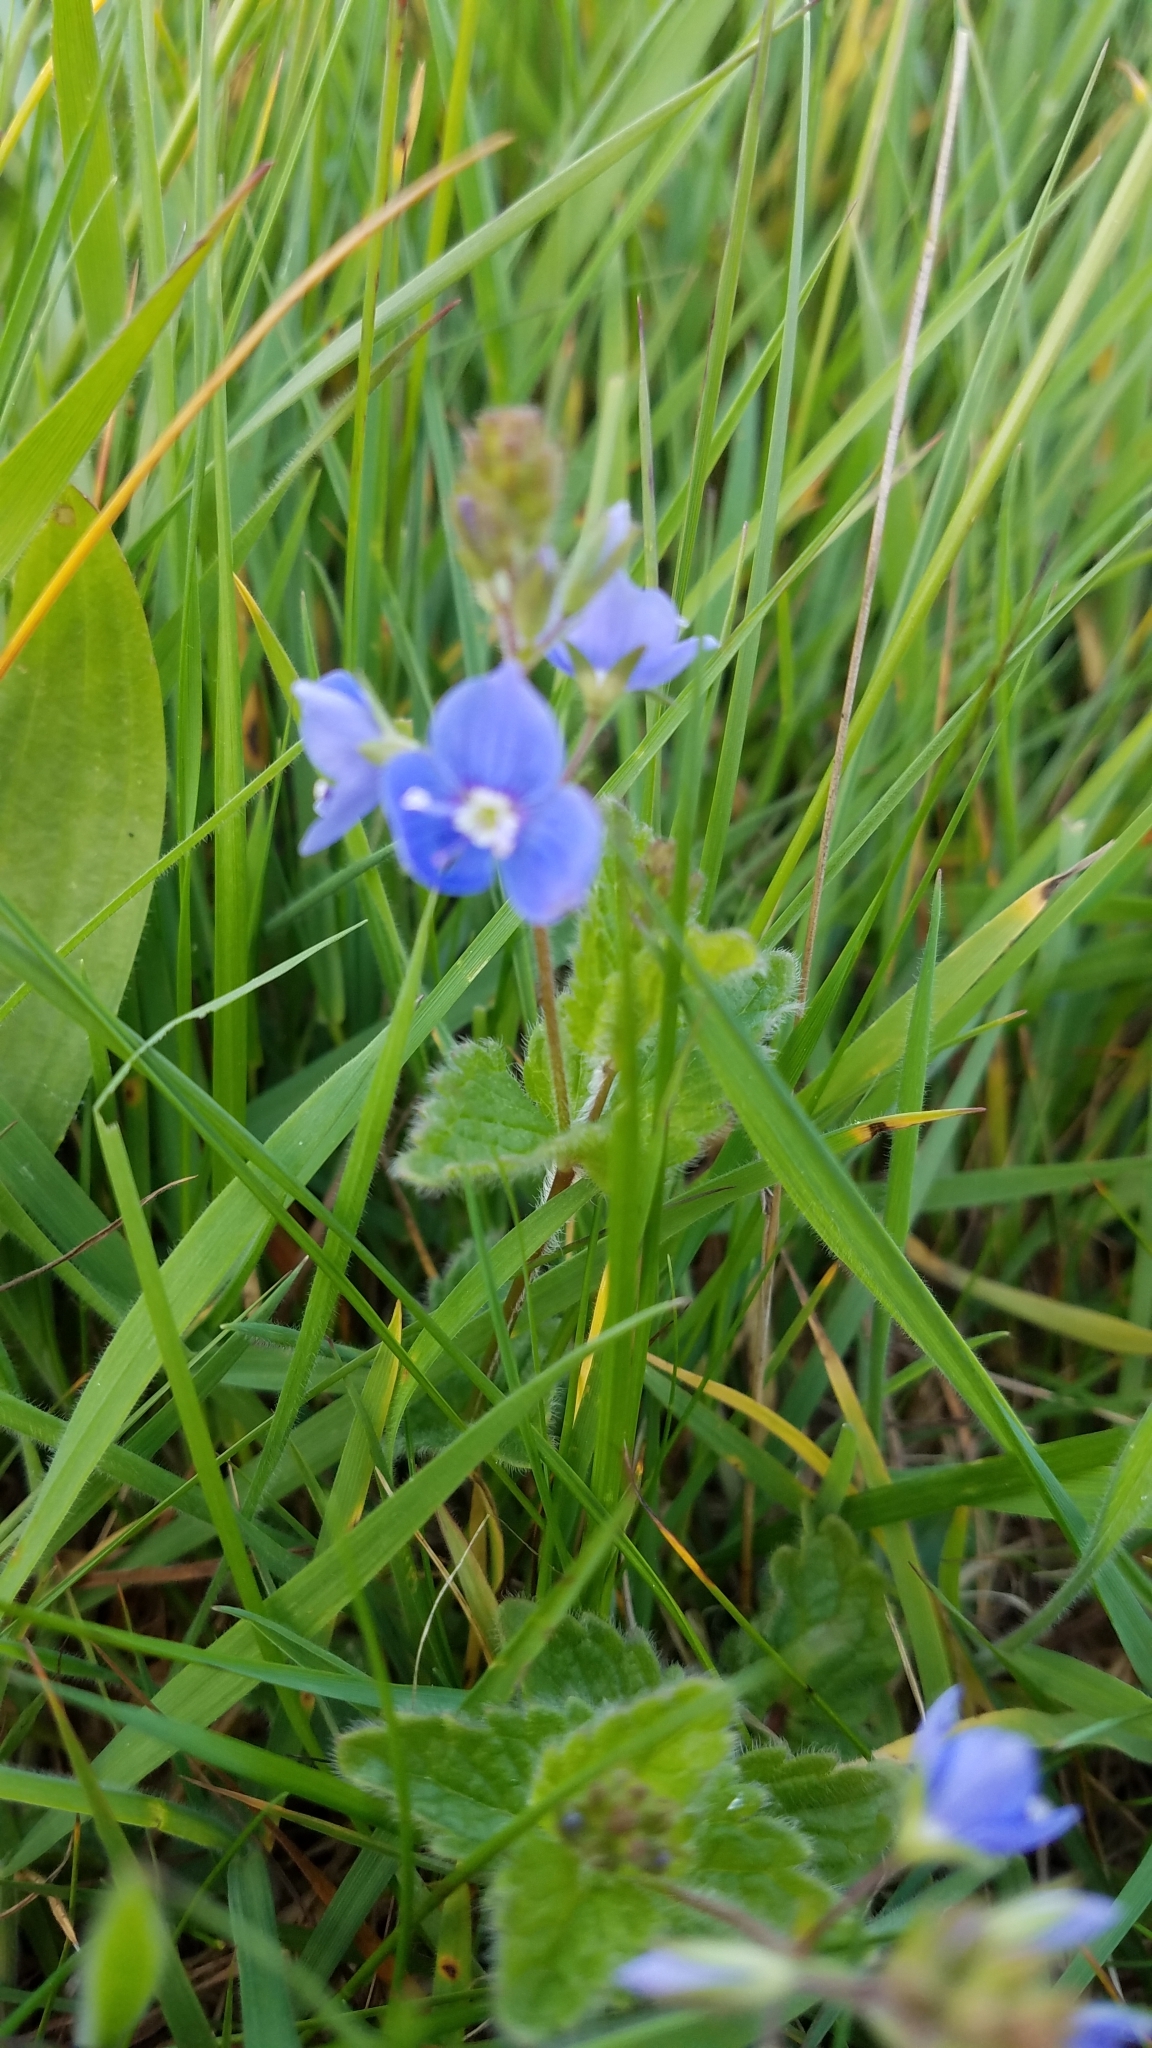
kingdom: Plantae
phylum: Tracheophyta
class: Magnoliopsida
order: Lamiales
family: Plantaginaceae
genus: Veronica
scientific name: Veronica chamaedrys
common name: Germander speedwell
